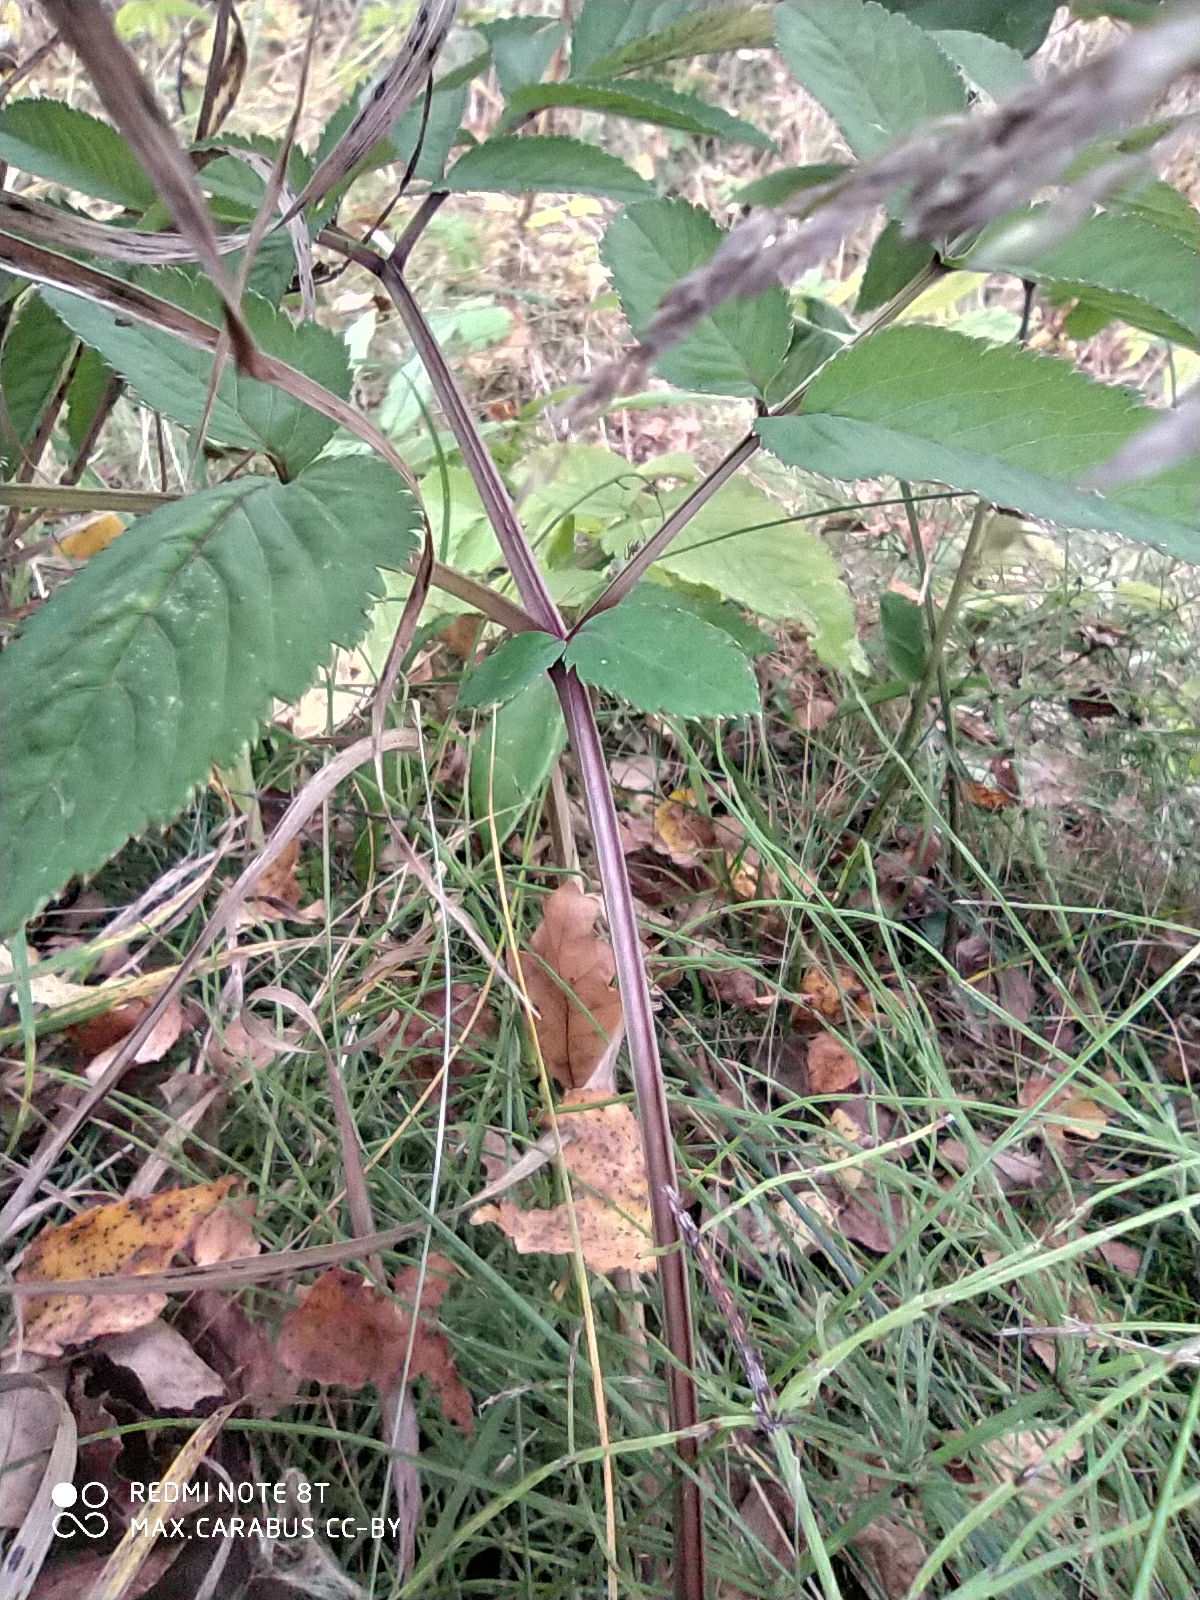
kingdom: Plantae
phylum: Tracheophyta
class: Magnoliopsida
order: Apiales
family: Apiaceae
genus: Angelica
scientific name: Angelica sylvestris
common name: Wild angelica
